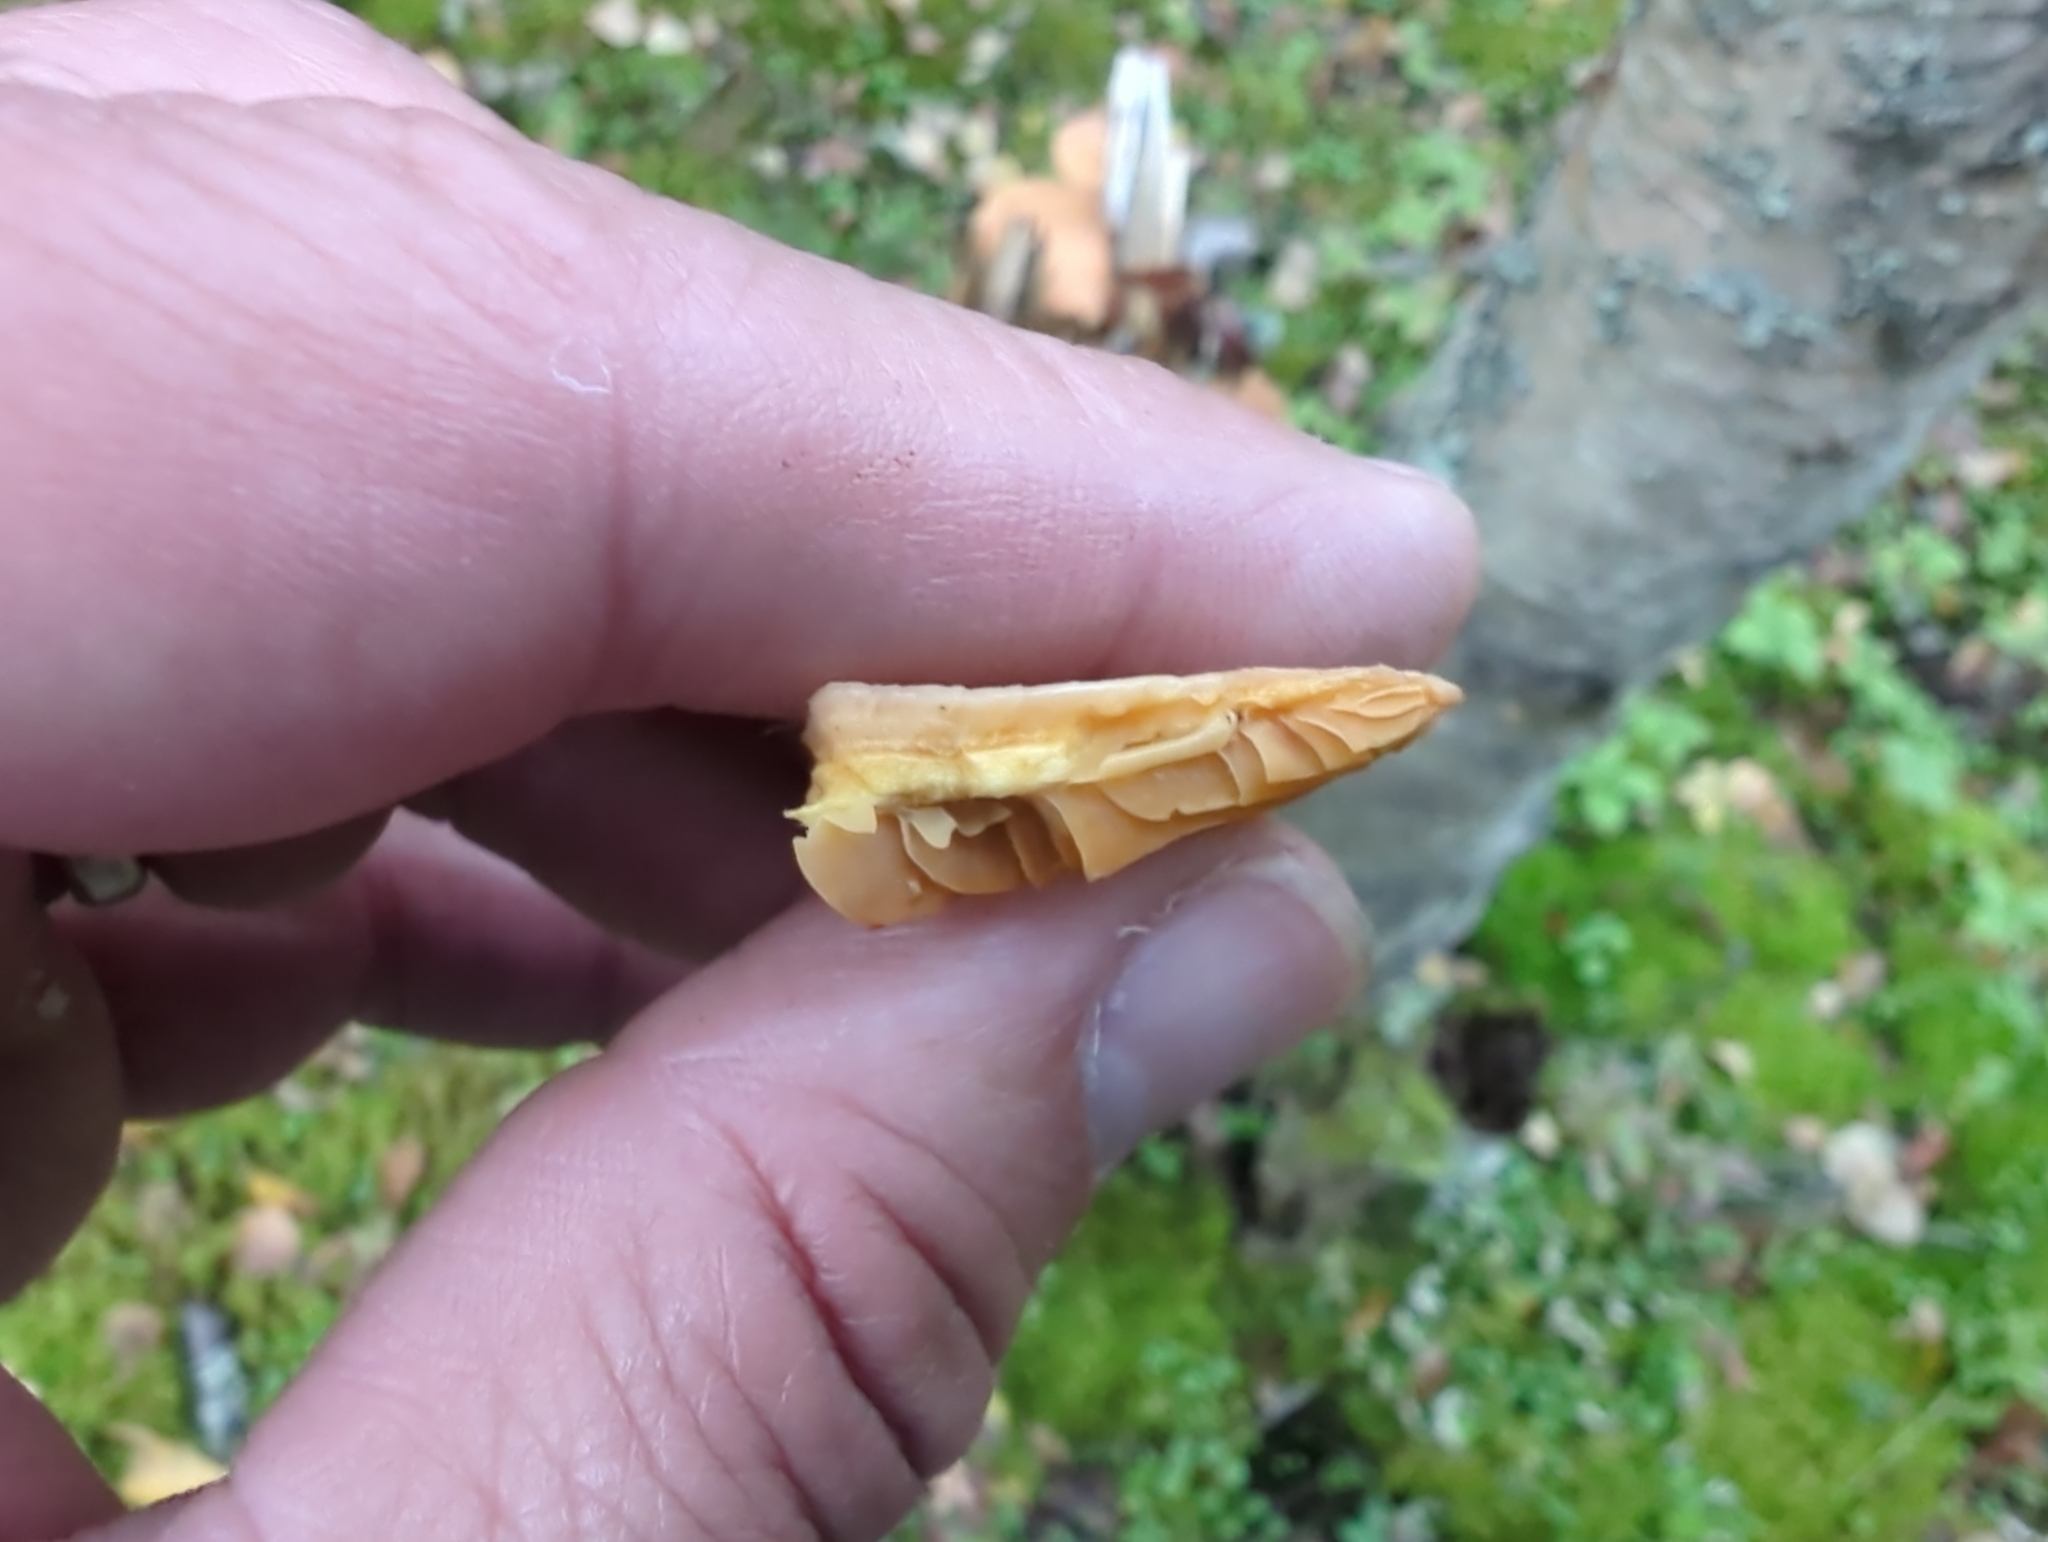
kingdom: Fungi
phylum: Basidiomycota
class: Agaricomycetes
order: Agaricales
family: Phyllotopsidaceae
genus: Phyllotopsis
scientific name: Phyllotopsis nidulans
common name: Orange mock oyster
